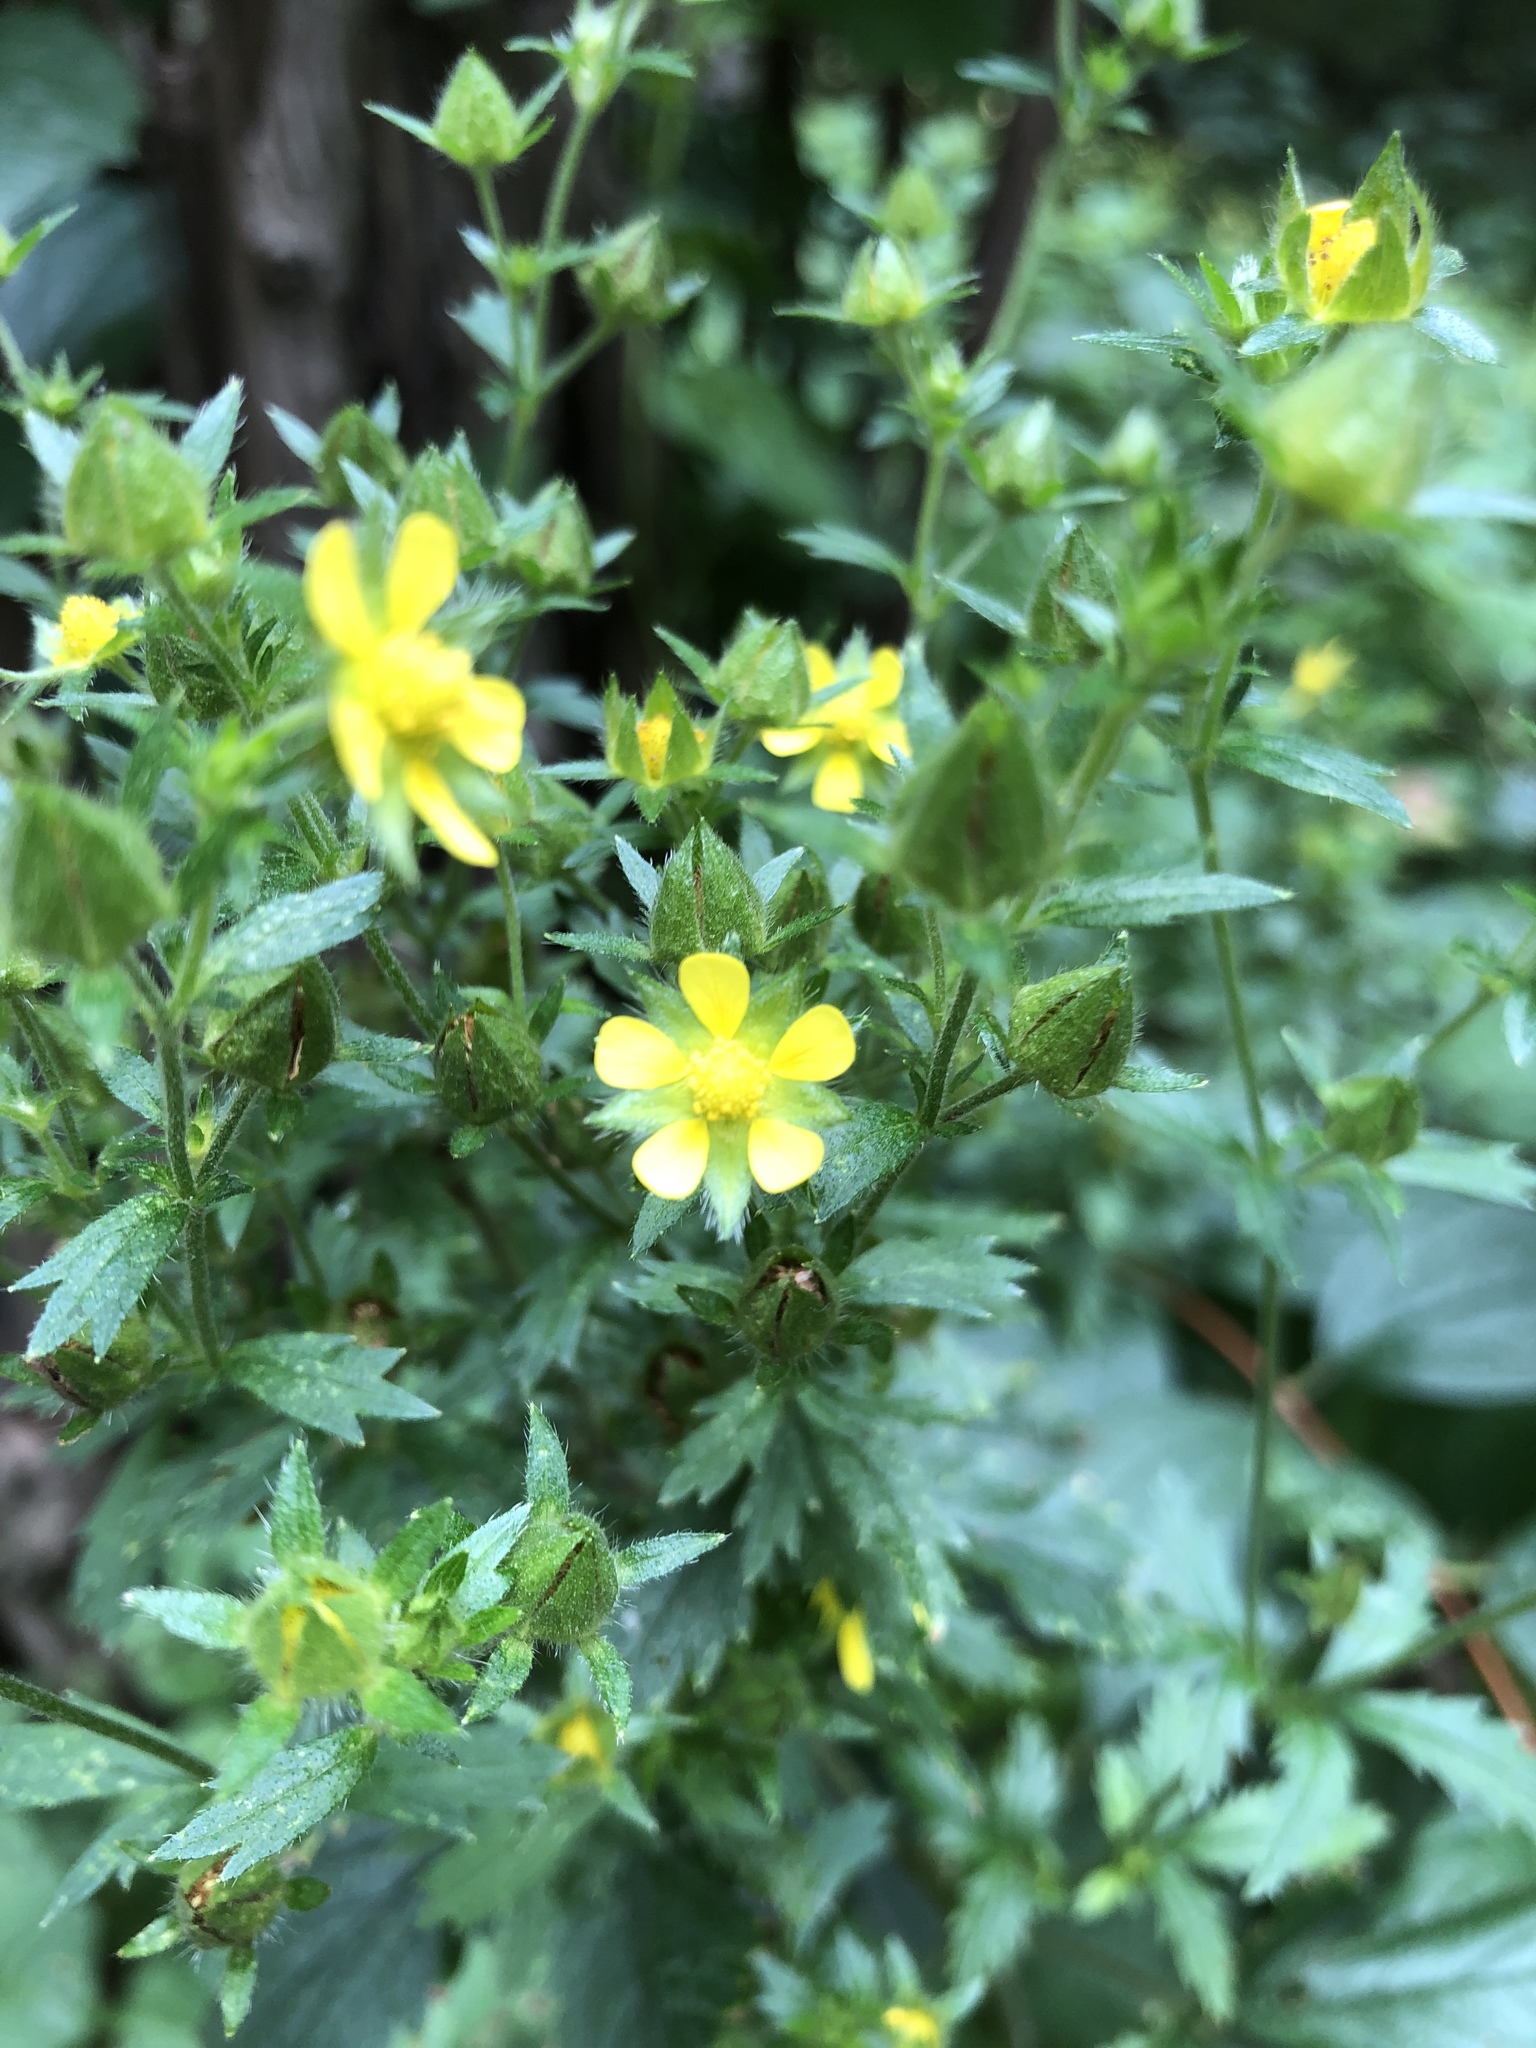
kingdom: Plantae
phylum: Tracheophyta
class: Magnoliopsida
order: Rosales
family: Rosaceae
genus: Potentilla
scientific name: Potentilla norvegica
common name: Ternate-leaved cinquefoil
